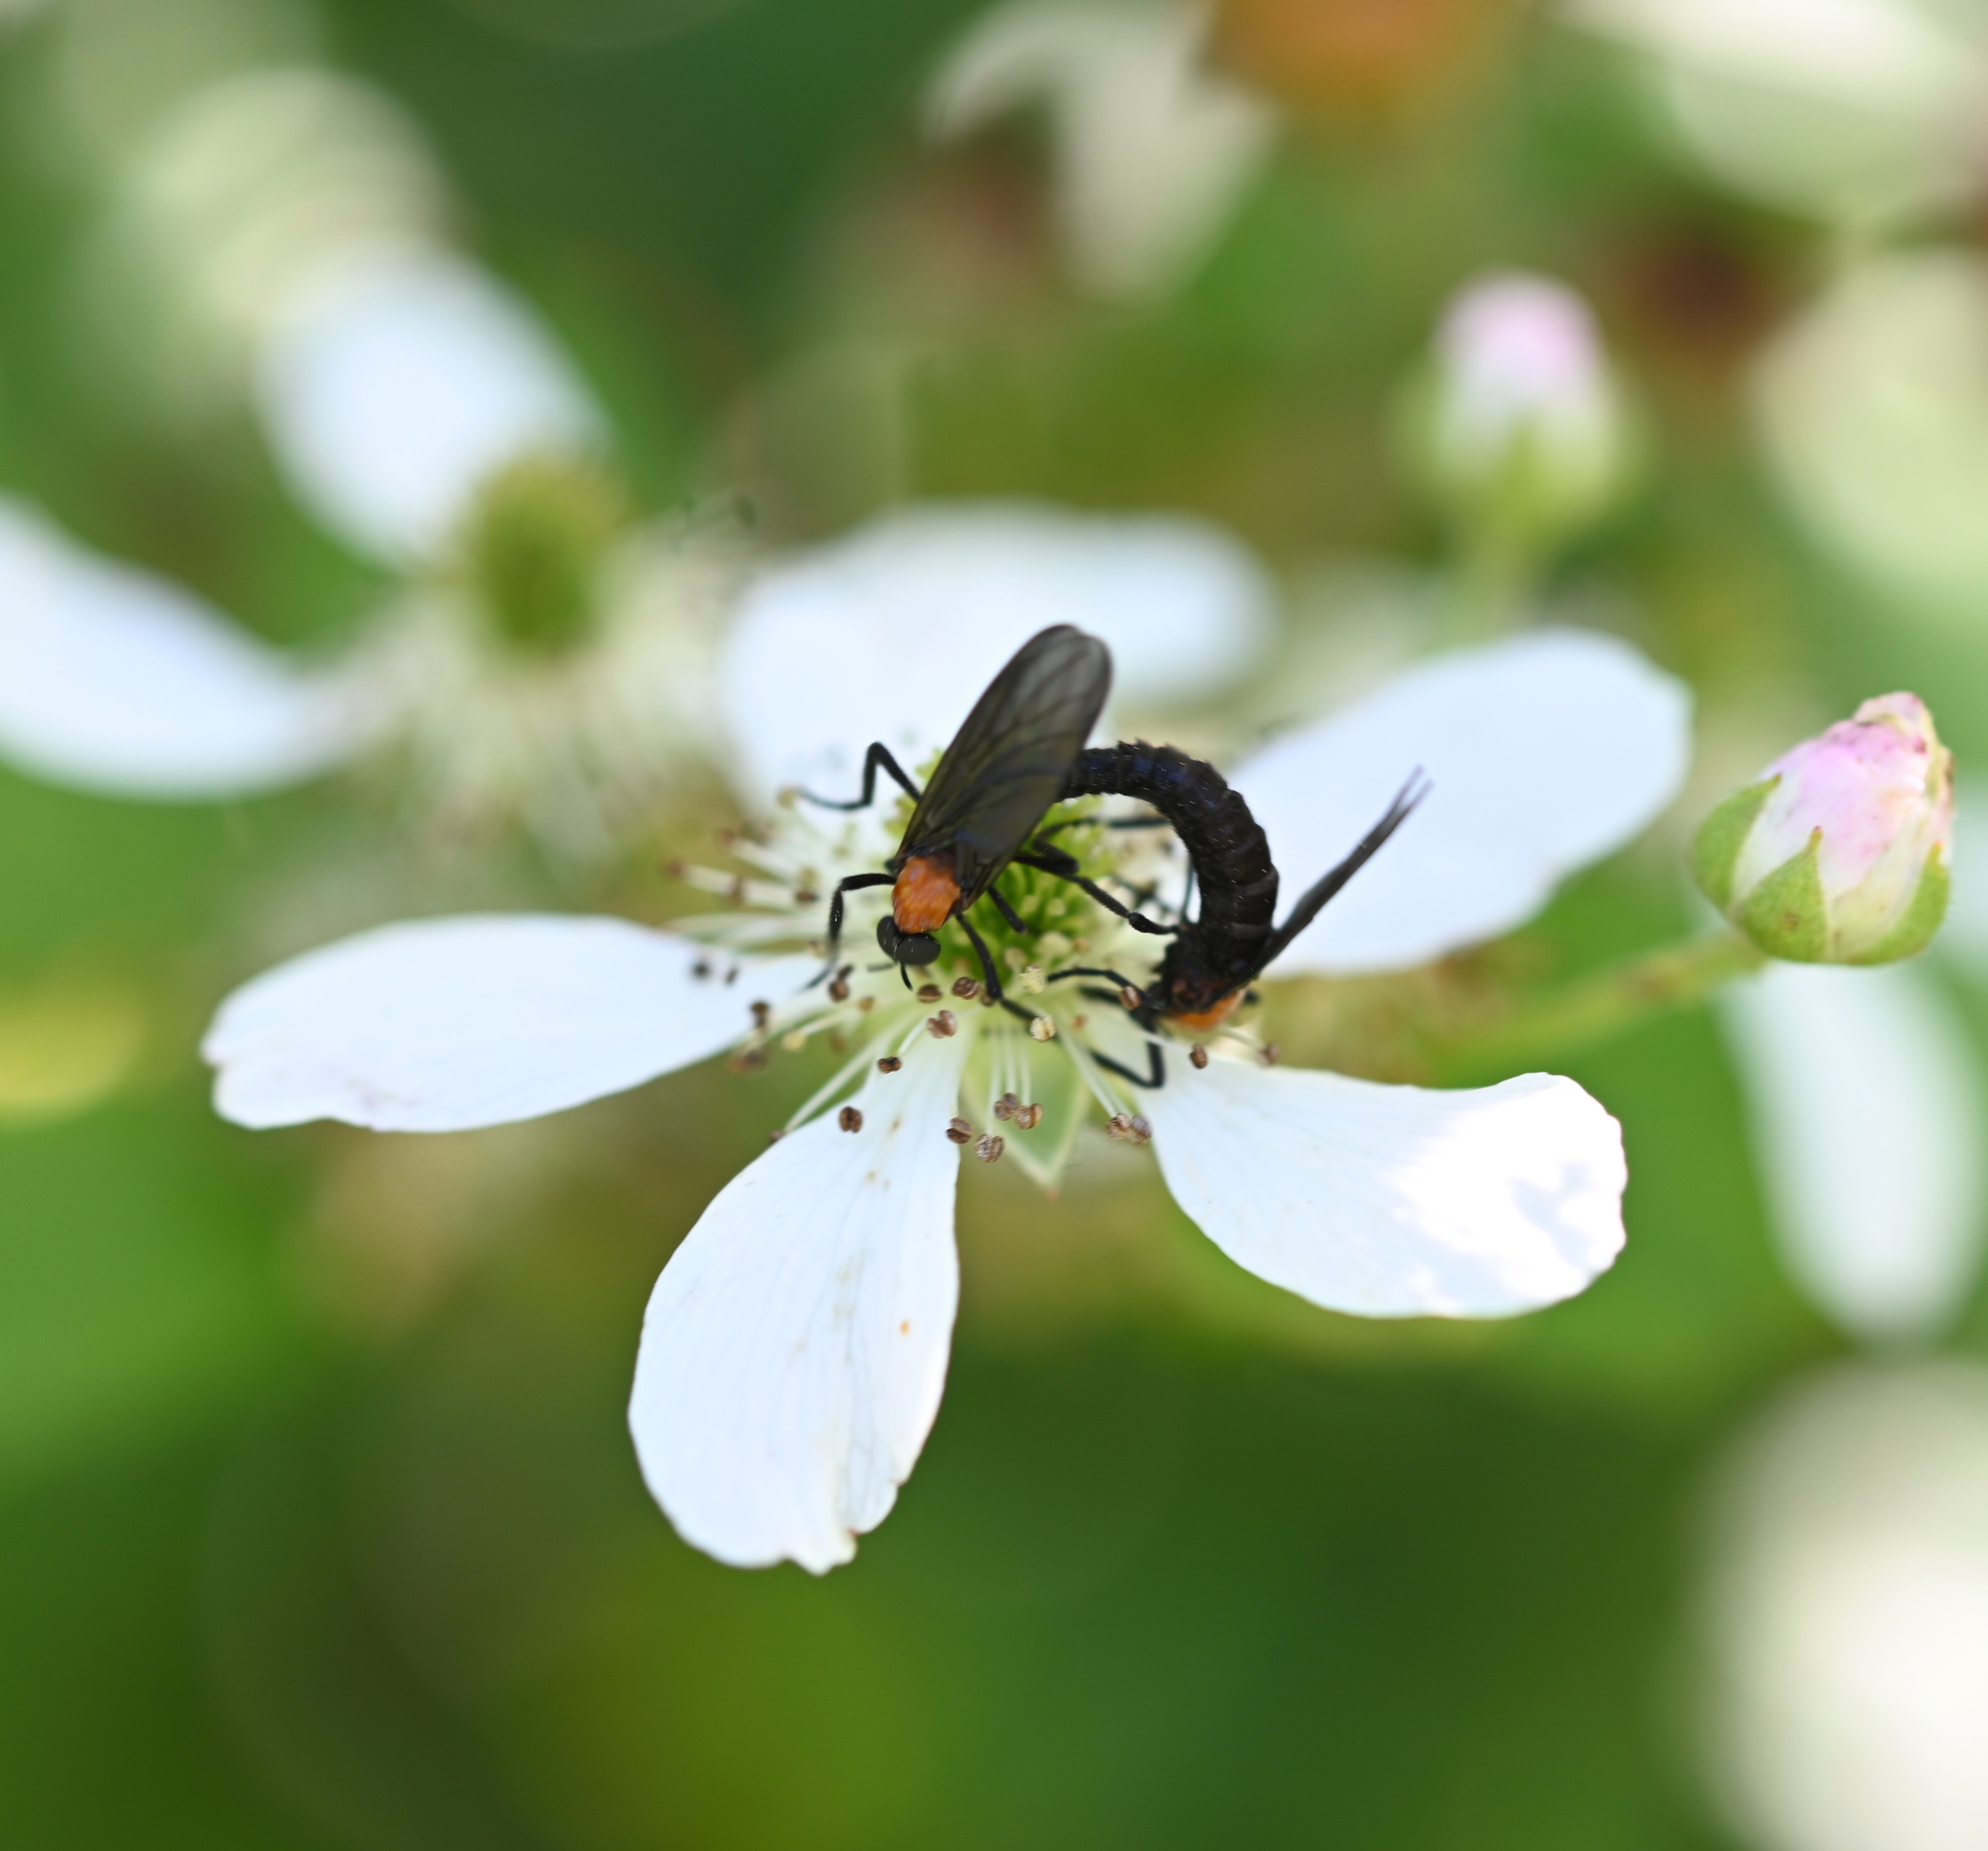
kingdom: Animalia
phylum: Arthropoda
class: Insecta
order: Diptera
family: Bibionidae
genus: Plecia
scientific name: Plecia nearctica
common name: March fly
